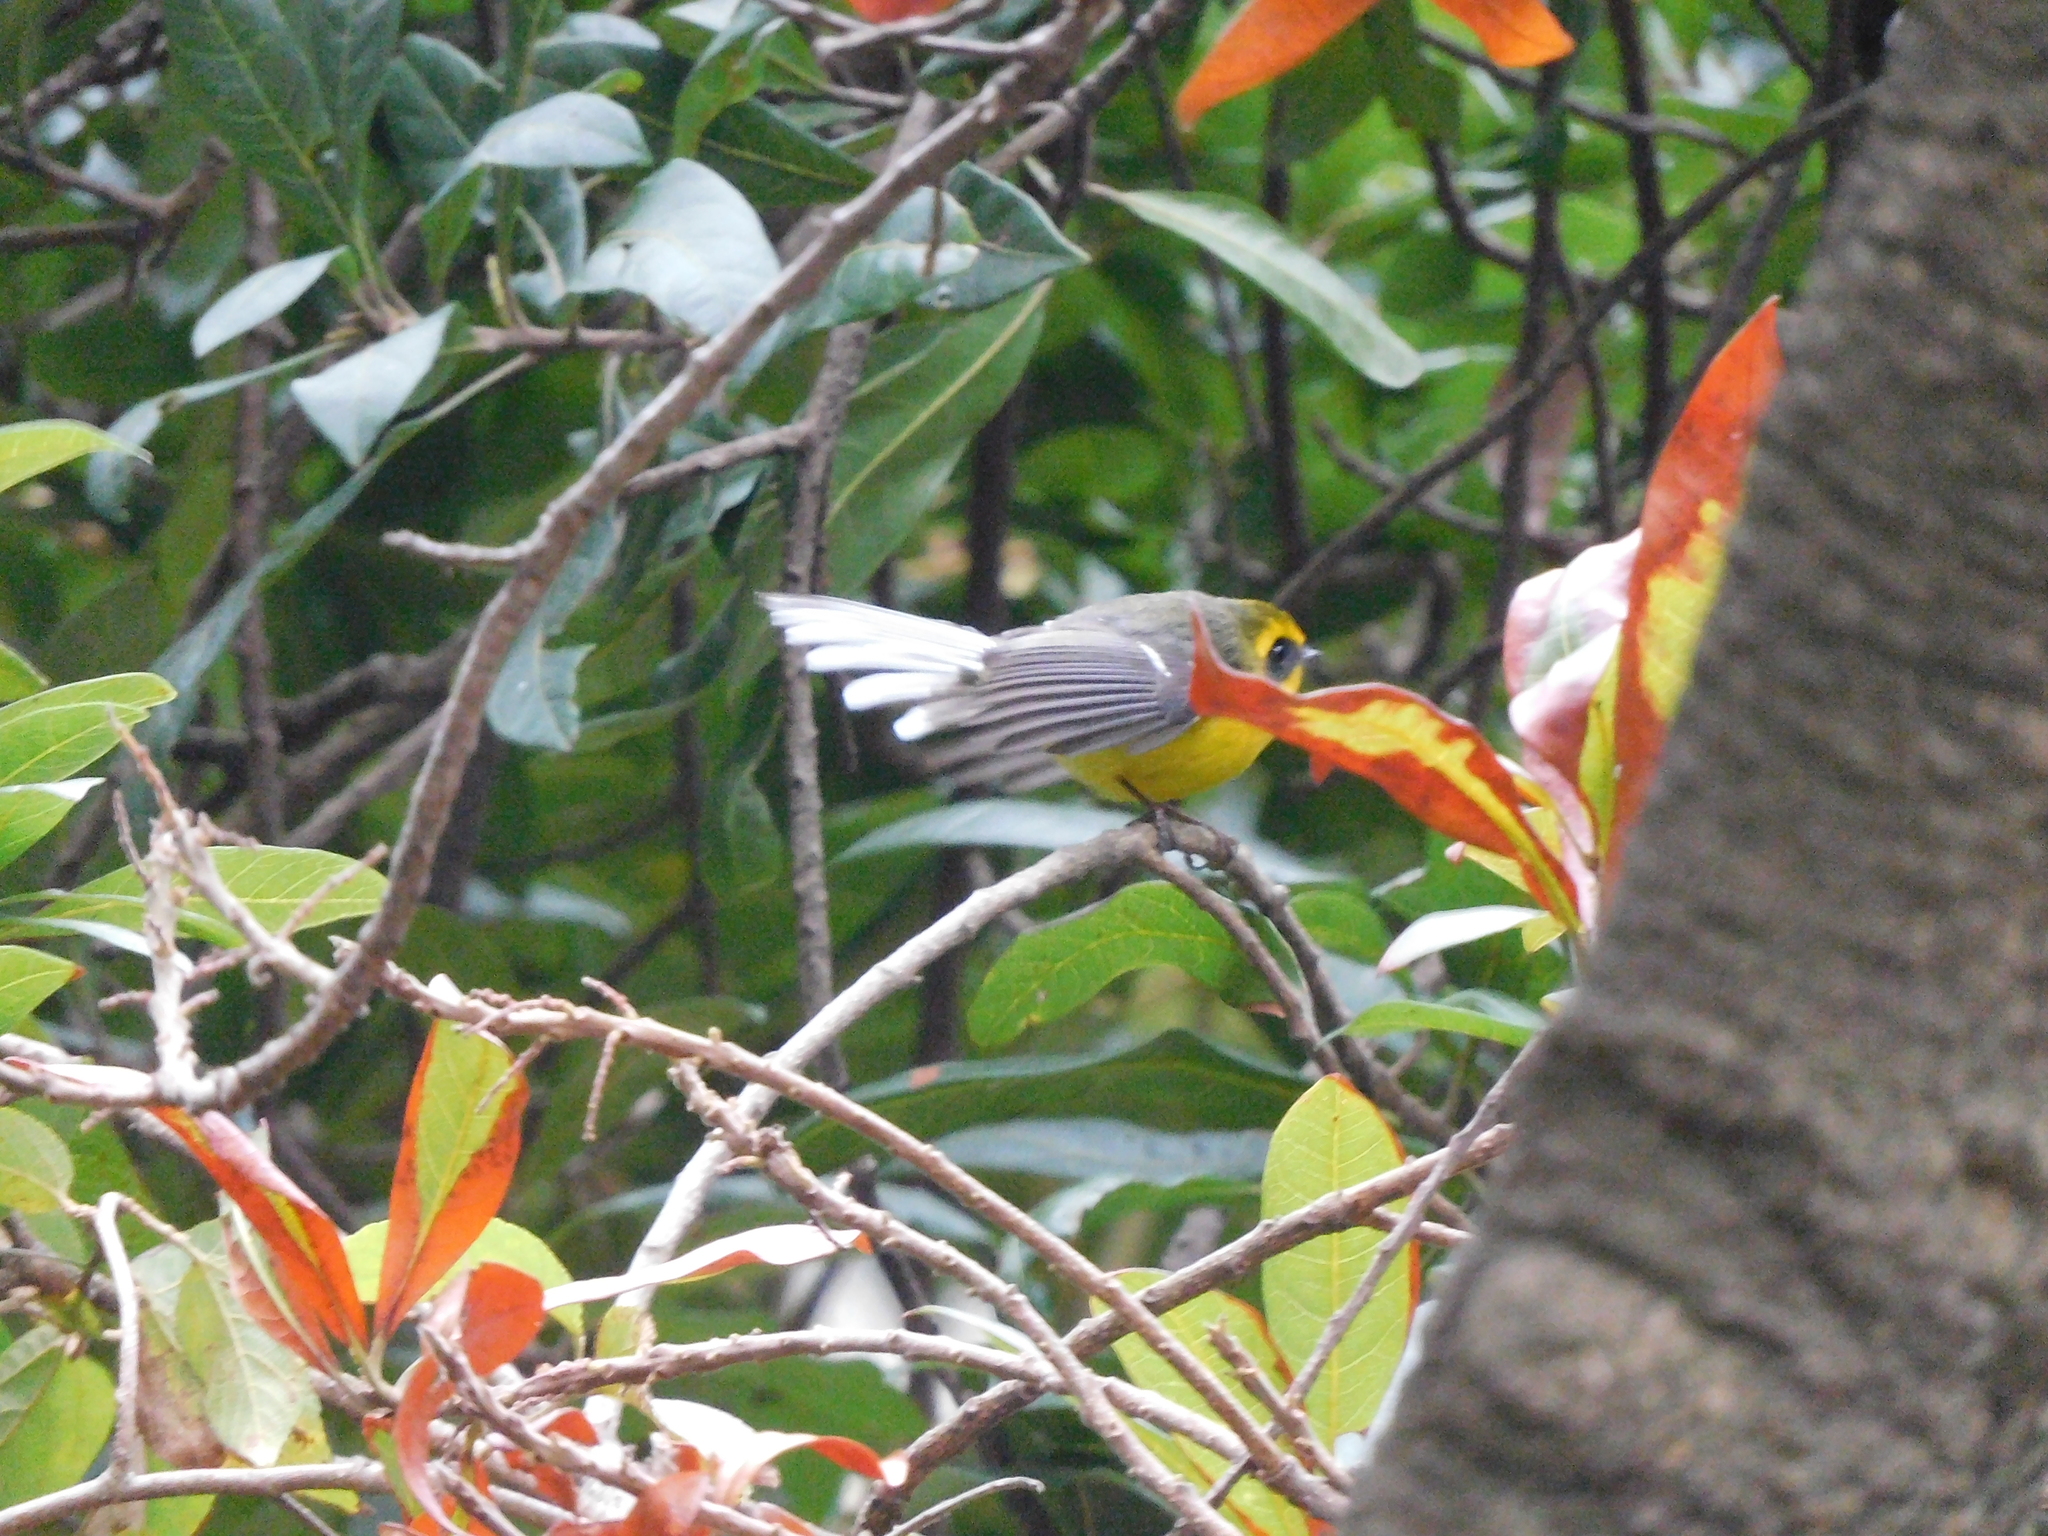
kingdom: Animalia
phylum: Chordata
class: Aves
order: Passeriformes
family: Stenostiridae
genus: Chelidorhynx
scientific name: Chelidorhynx hypoxantha
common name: Yellow-bellied fantail
